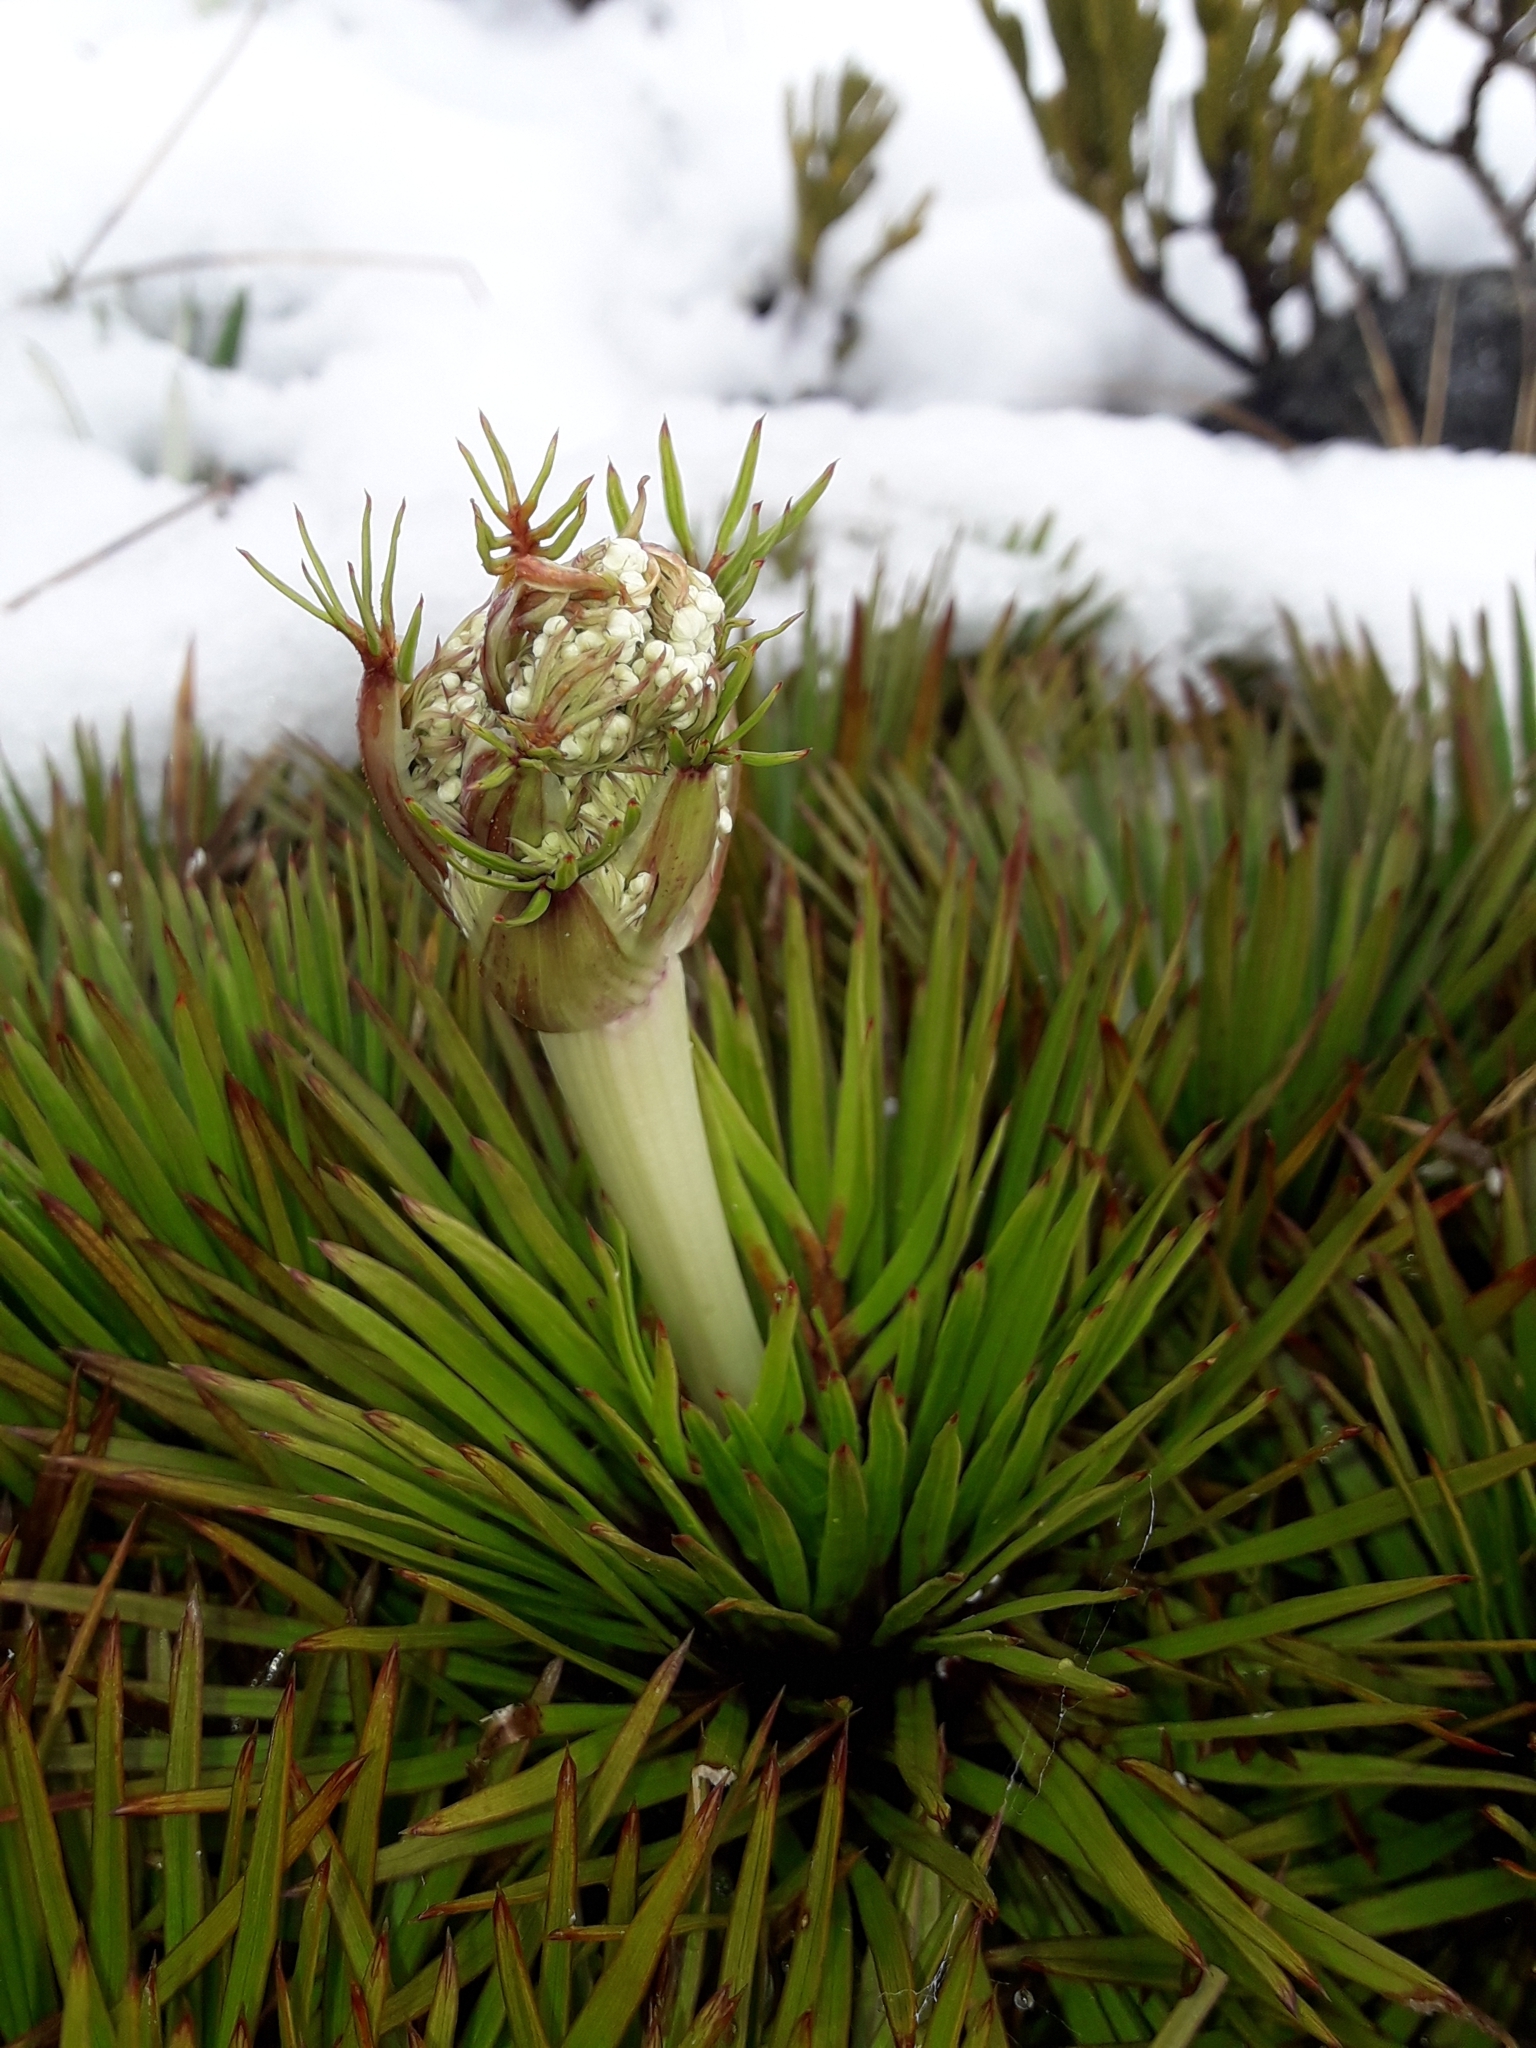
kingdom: Plantae
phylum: Tracheophyta
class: Magnoliopsida
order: Apiales
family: Apiaceae
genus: Aciphylla
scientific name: Aciphylla congesta
